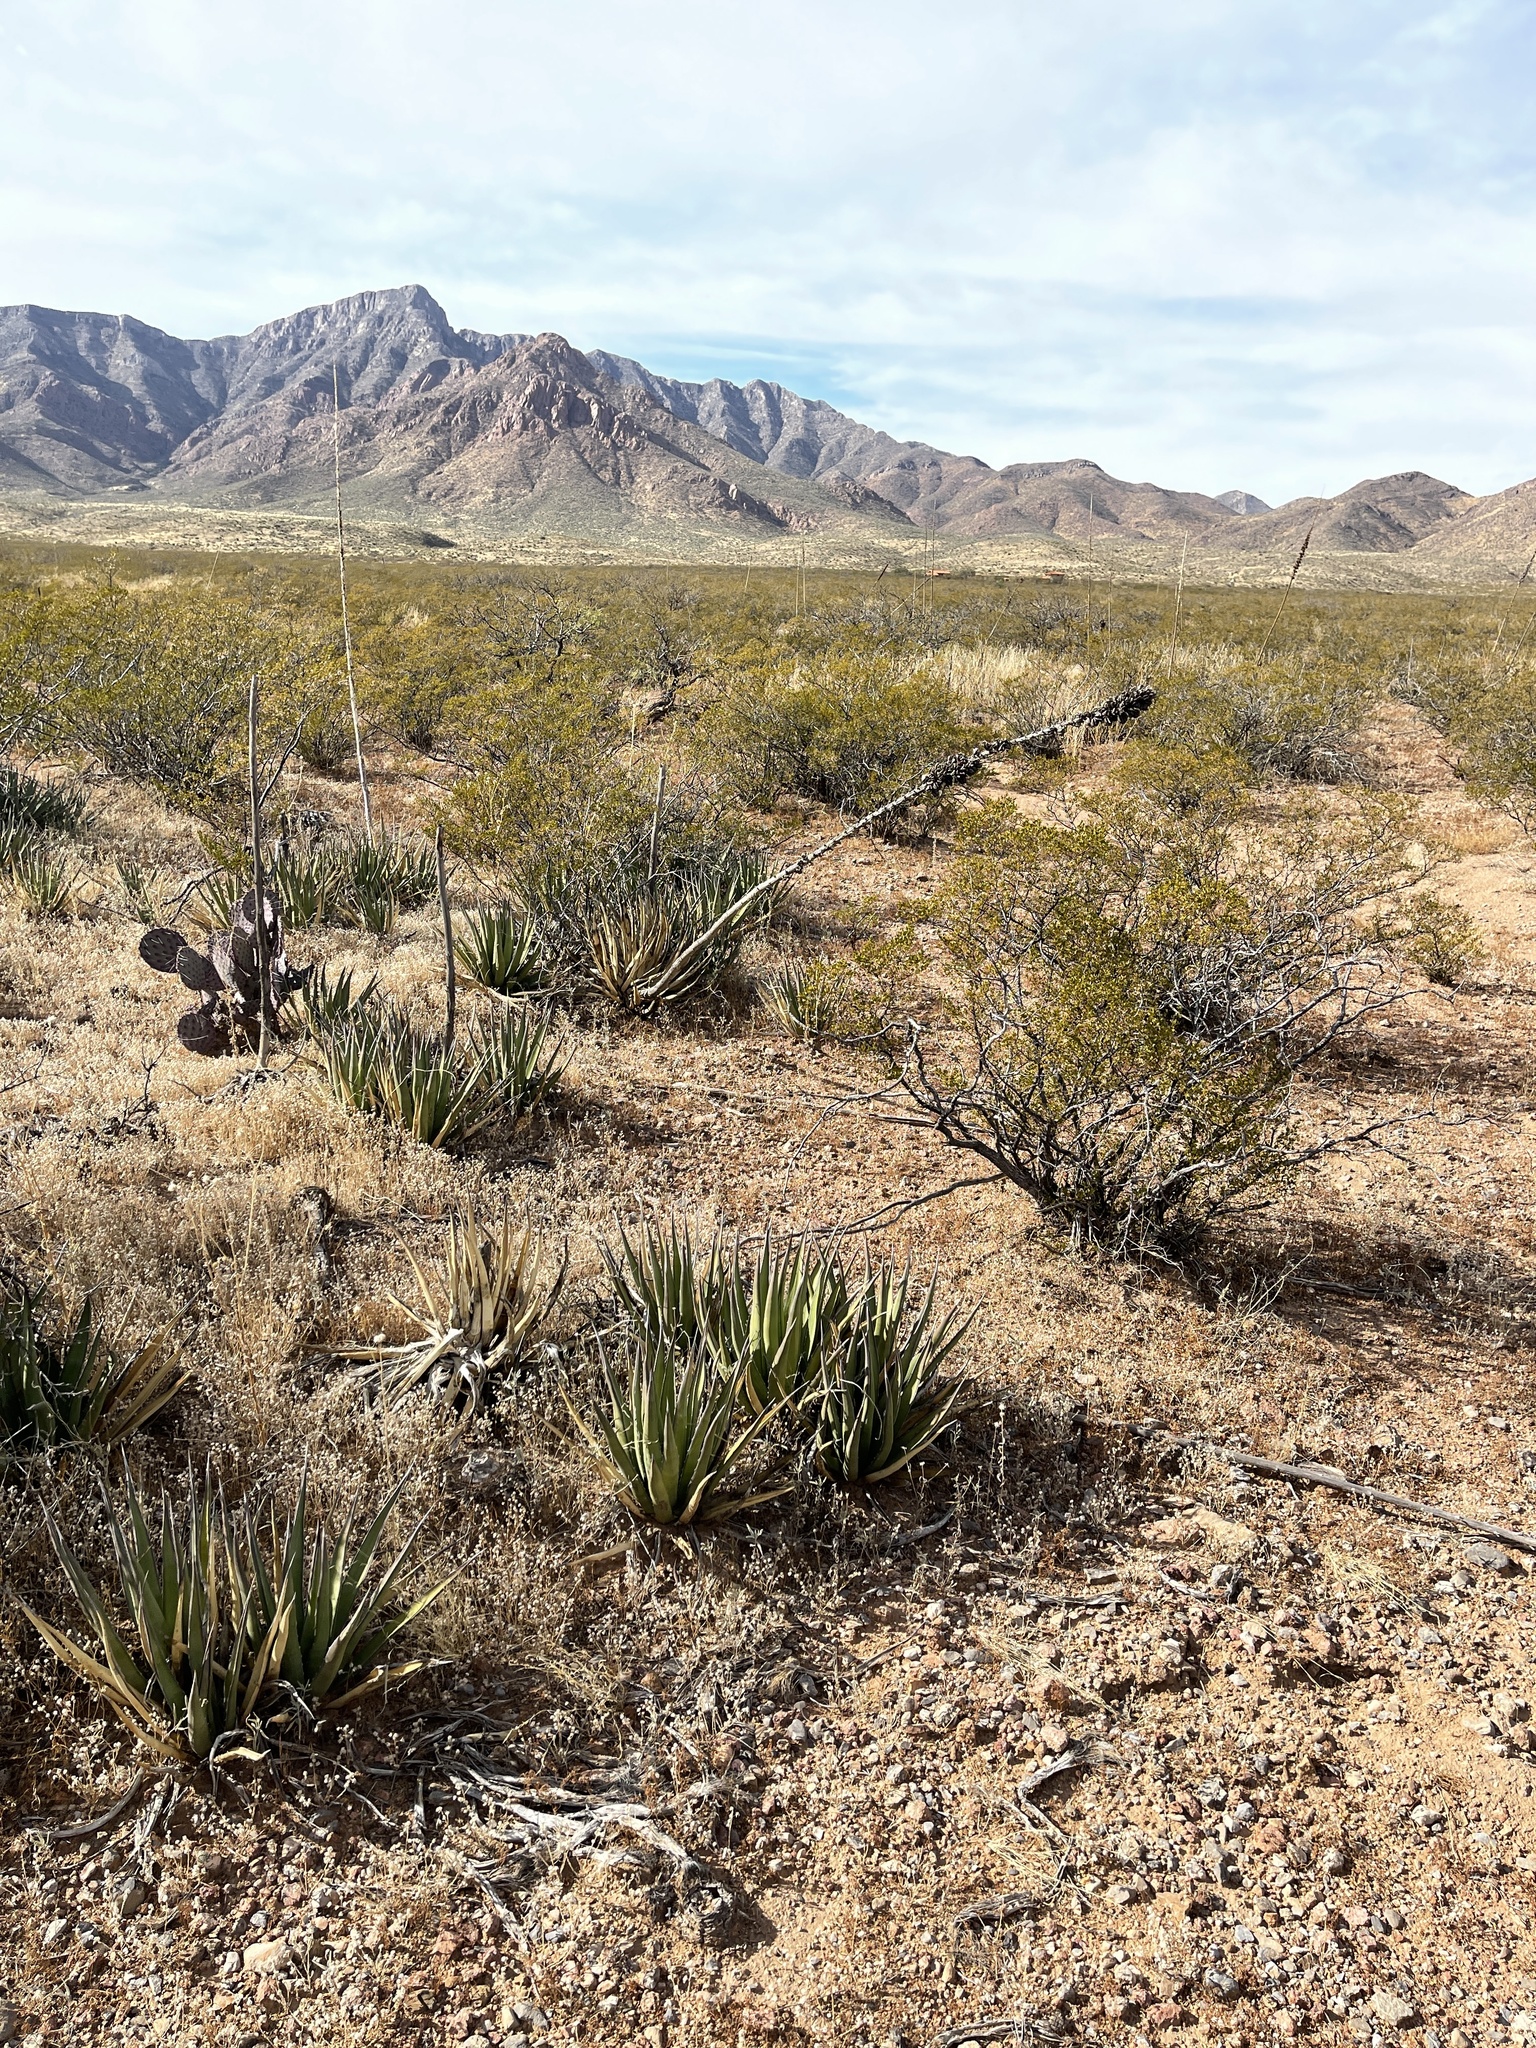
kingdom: Plantae
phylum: Tracheophyta
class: Liliopsida
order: Asparagales
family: Asparagaceae
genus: Agave
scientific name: Agave lechuguilla
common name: Lecheguilla agave
